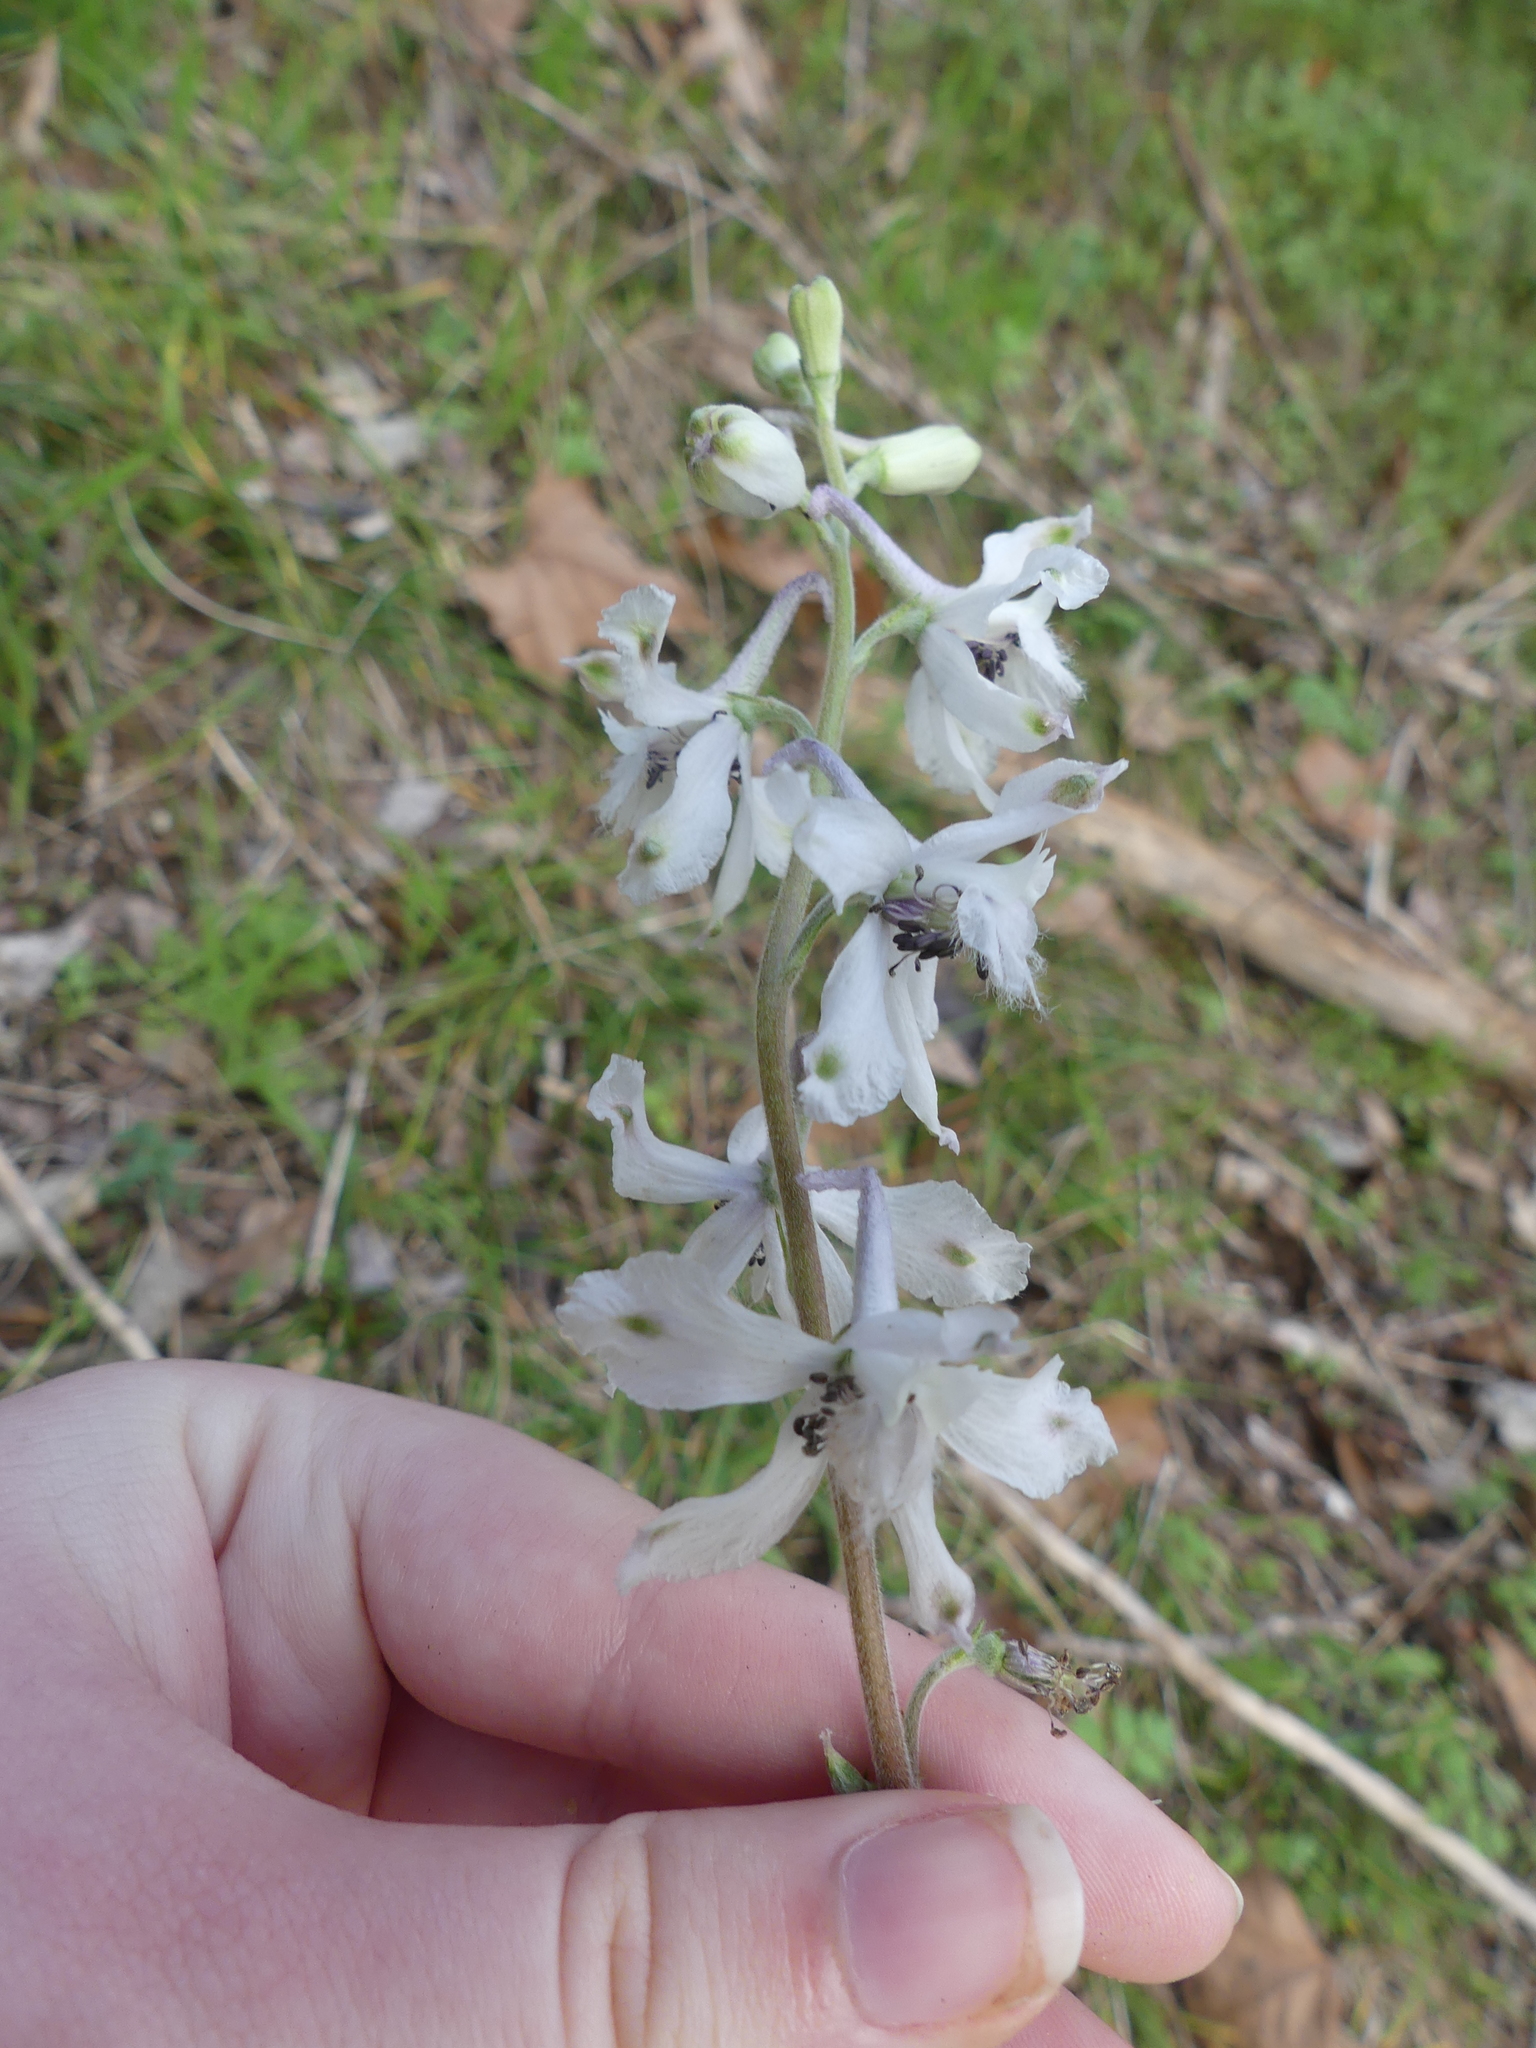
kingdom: Plantae
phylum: Tracheophyta
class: Magnoliopsida
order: Ranunculales
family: Ranunculaceae
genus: Delphinium
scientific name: Delphinium carolinianum
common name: Carolina larkspur
